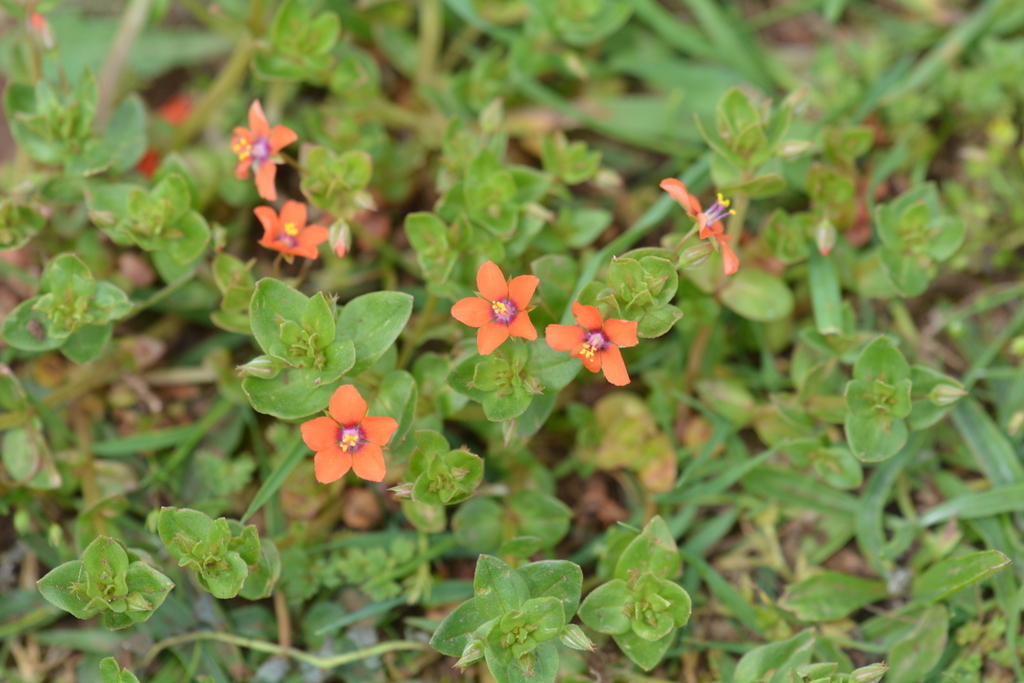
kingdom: Plantae
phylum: Tracheophyta
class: Magnoliopsida
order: Ericales
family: Primulaceae
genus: Lysimachia
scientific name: Lysimachia arvensis
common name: Scarlet pimpernel
